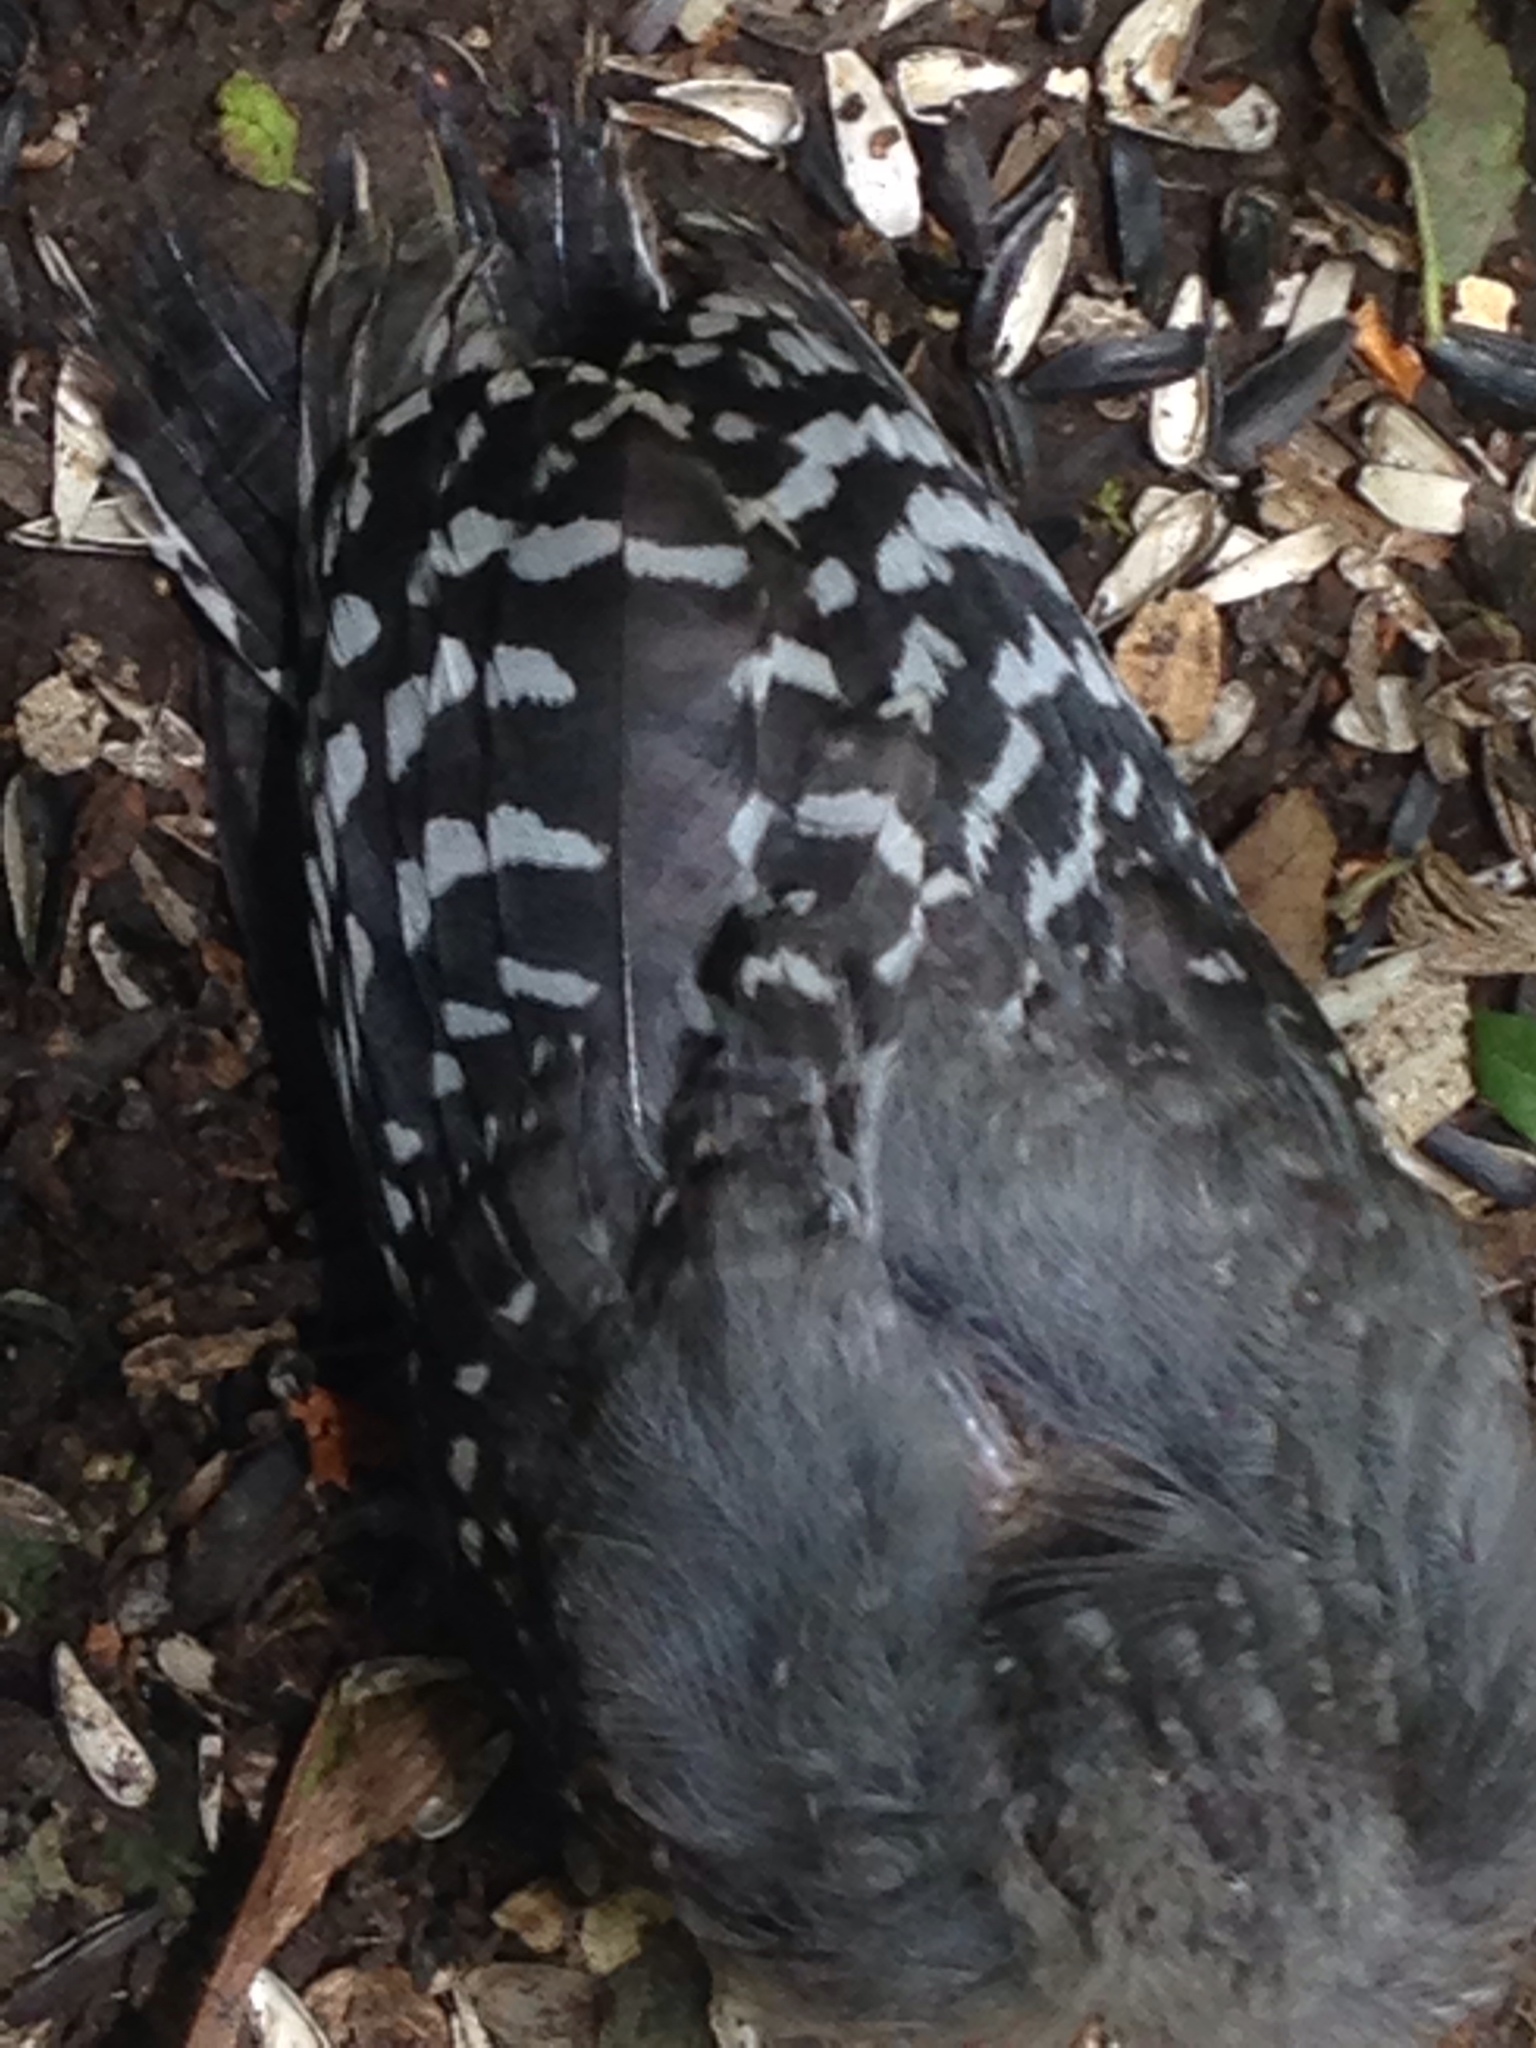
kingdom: Animalia
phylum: Chordata
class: Aves
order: Piciformes
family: Picidae
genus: Melanerpes
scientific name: Melanerpes carolinus
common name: Red-bellied woodpecker
